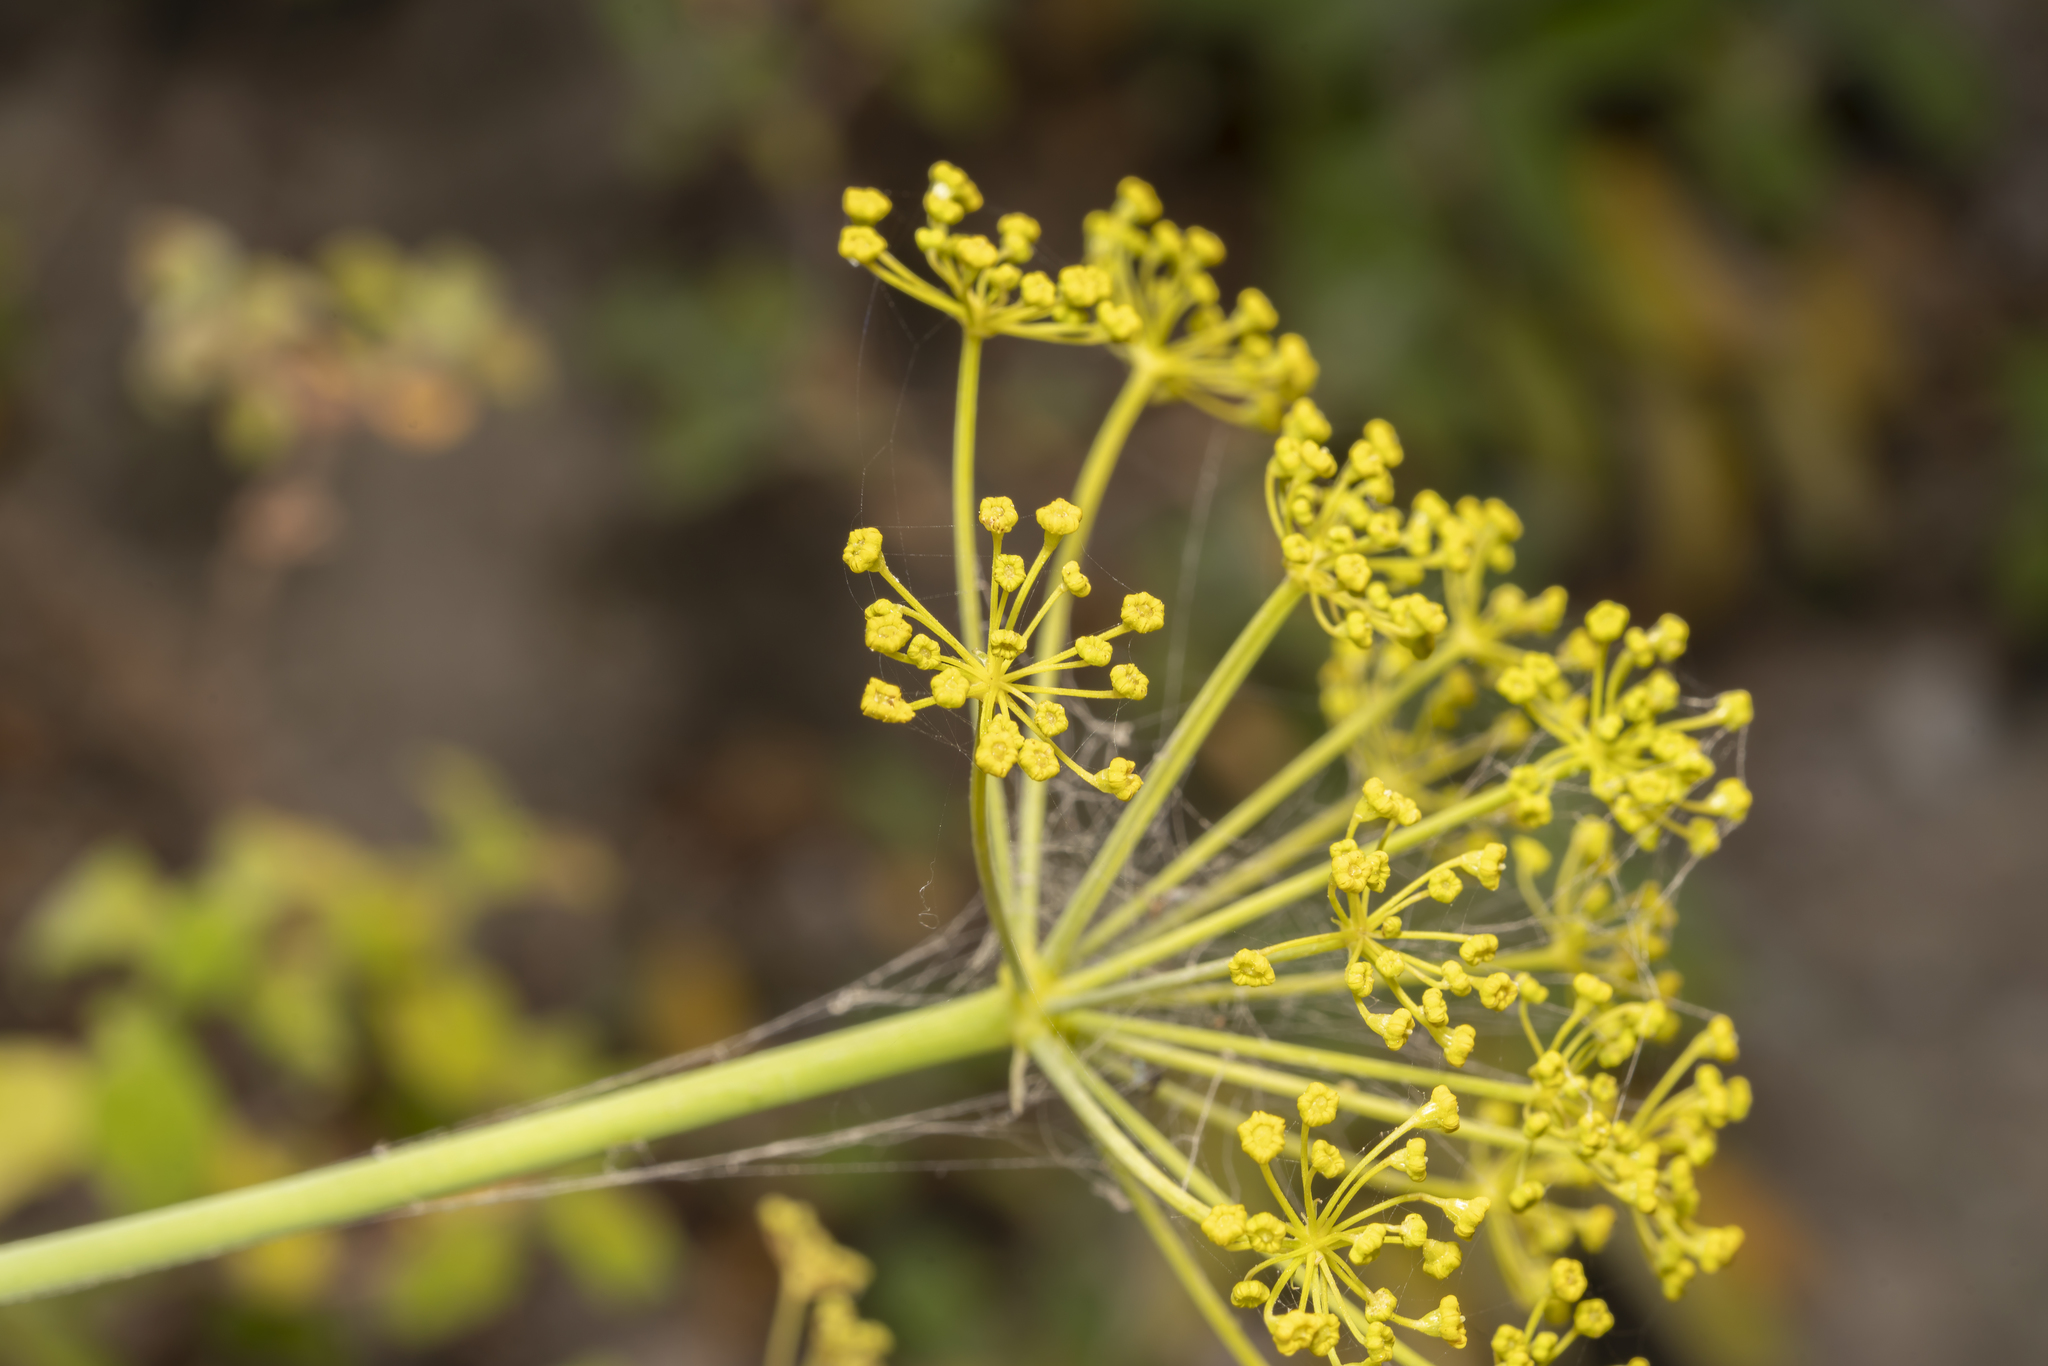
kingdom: Plantae
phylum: Tracheophyta
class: Magnoliopsida
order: Apiales
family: Apiaceae
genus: Thapsia
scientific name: Thapsia asclepium
